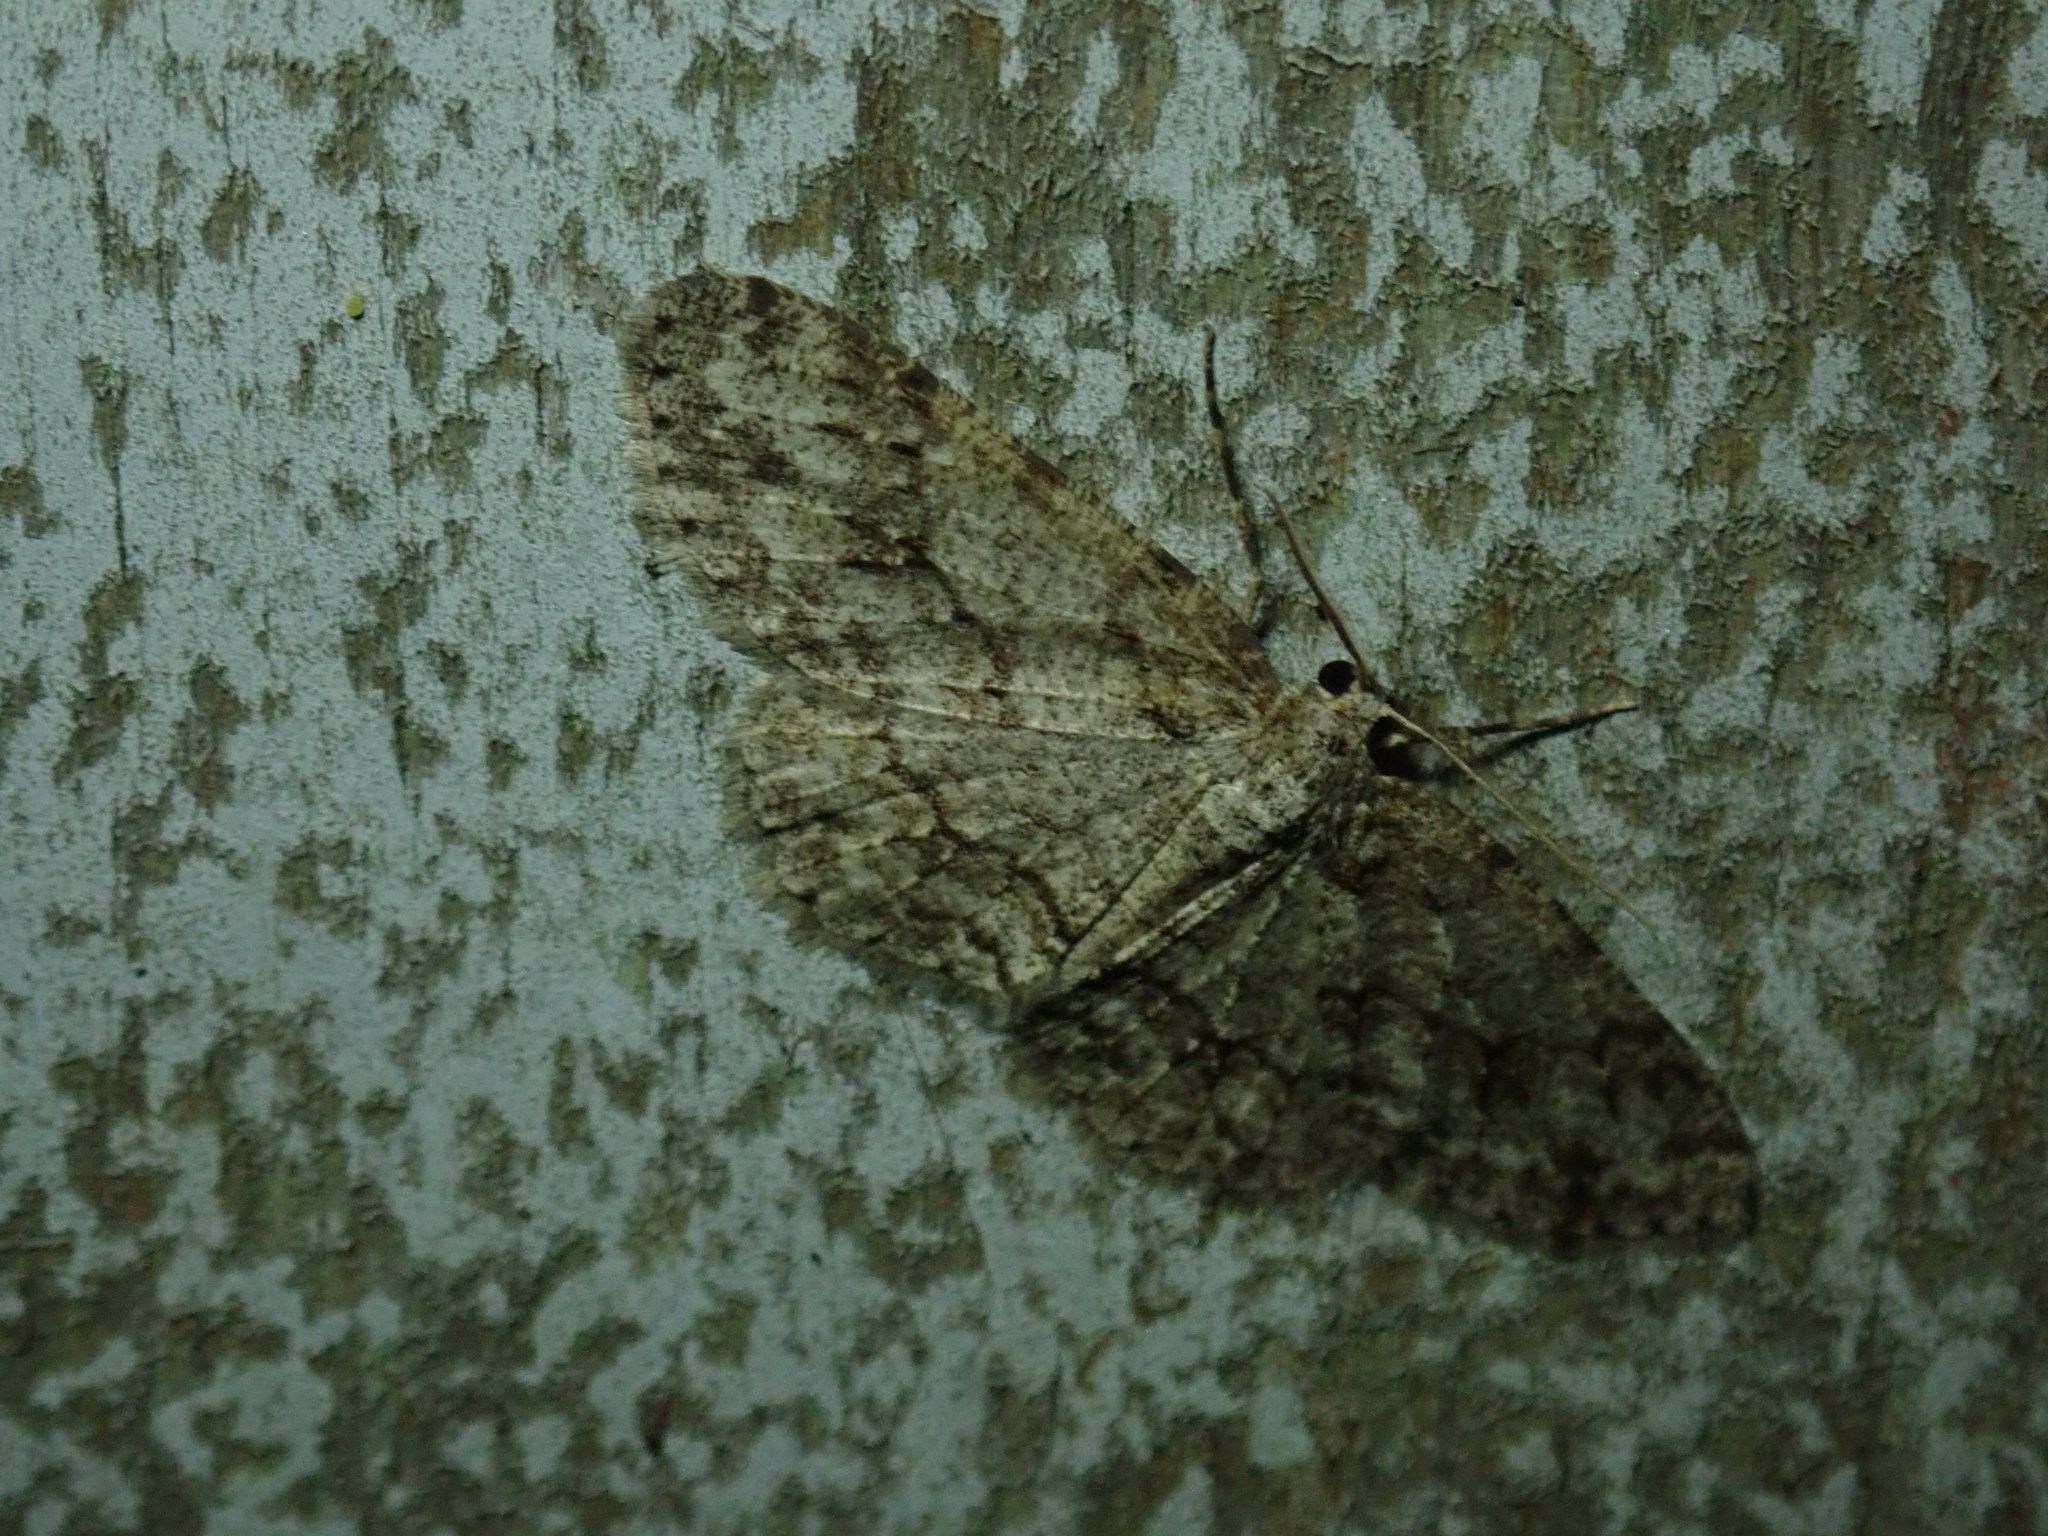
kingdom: Animalia
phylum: Arthropoda
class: Insecta
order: Lepidoptera
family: Geometridae
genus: Ectropis
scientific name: Ectropis crepuscularia
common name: Engrailed
